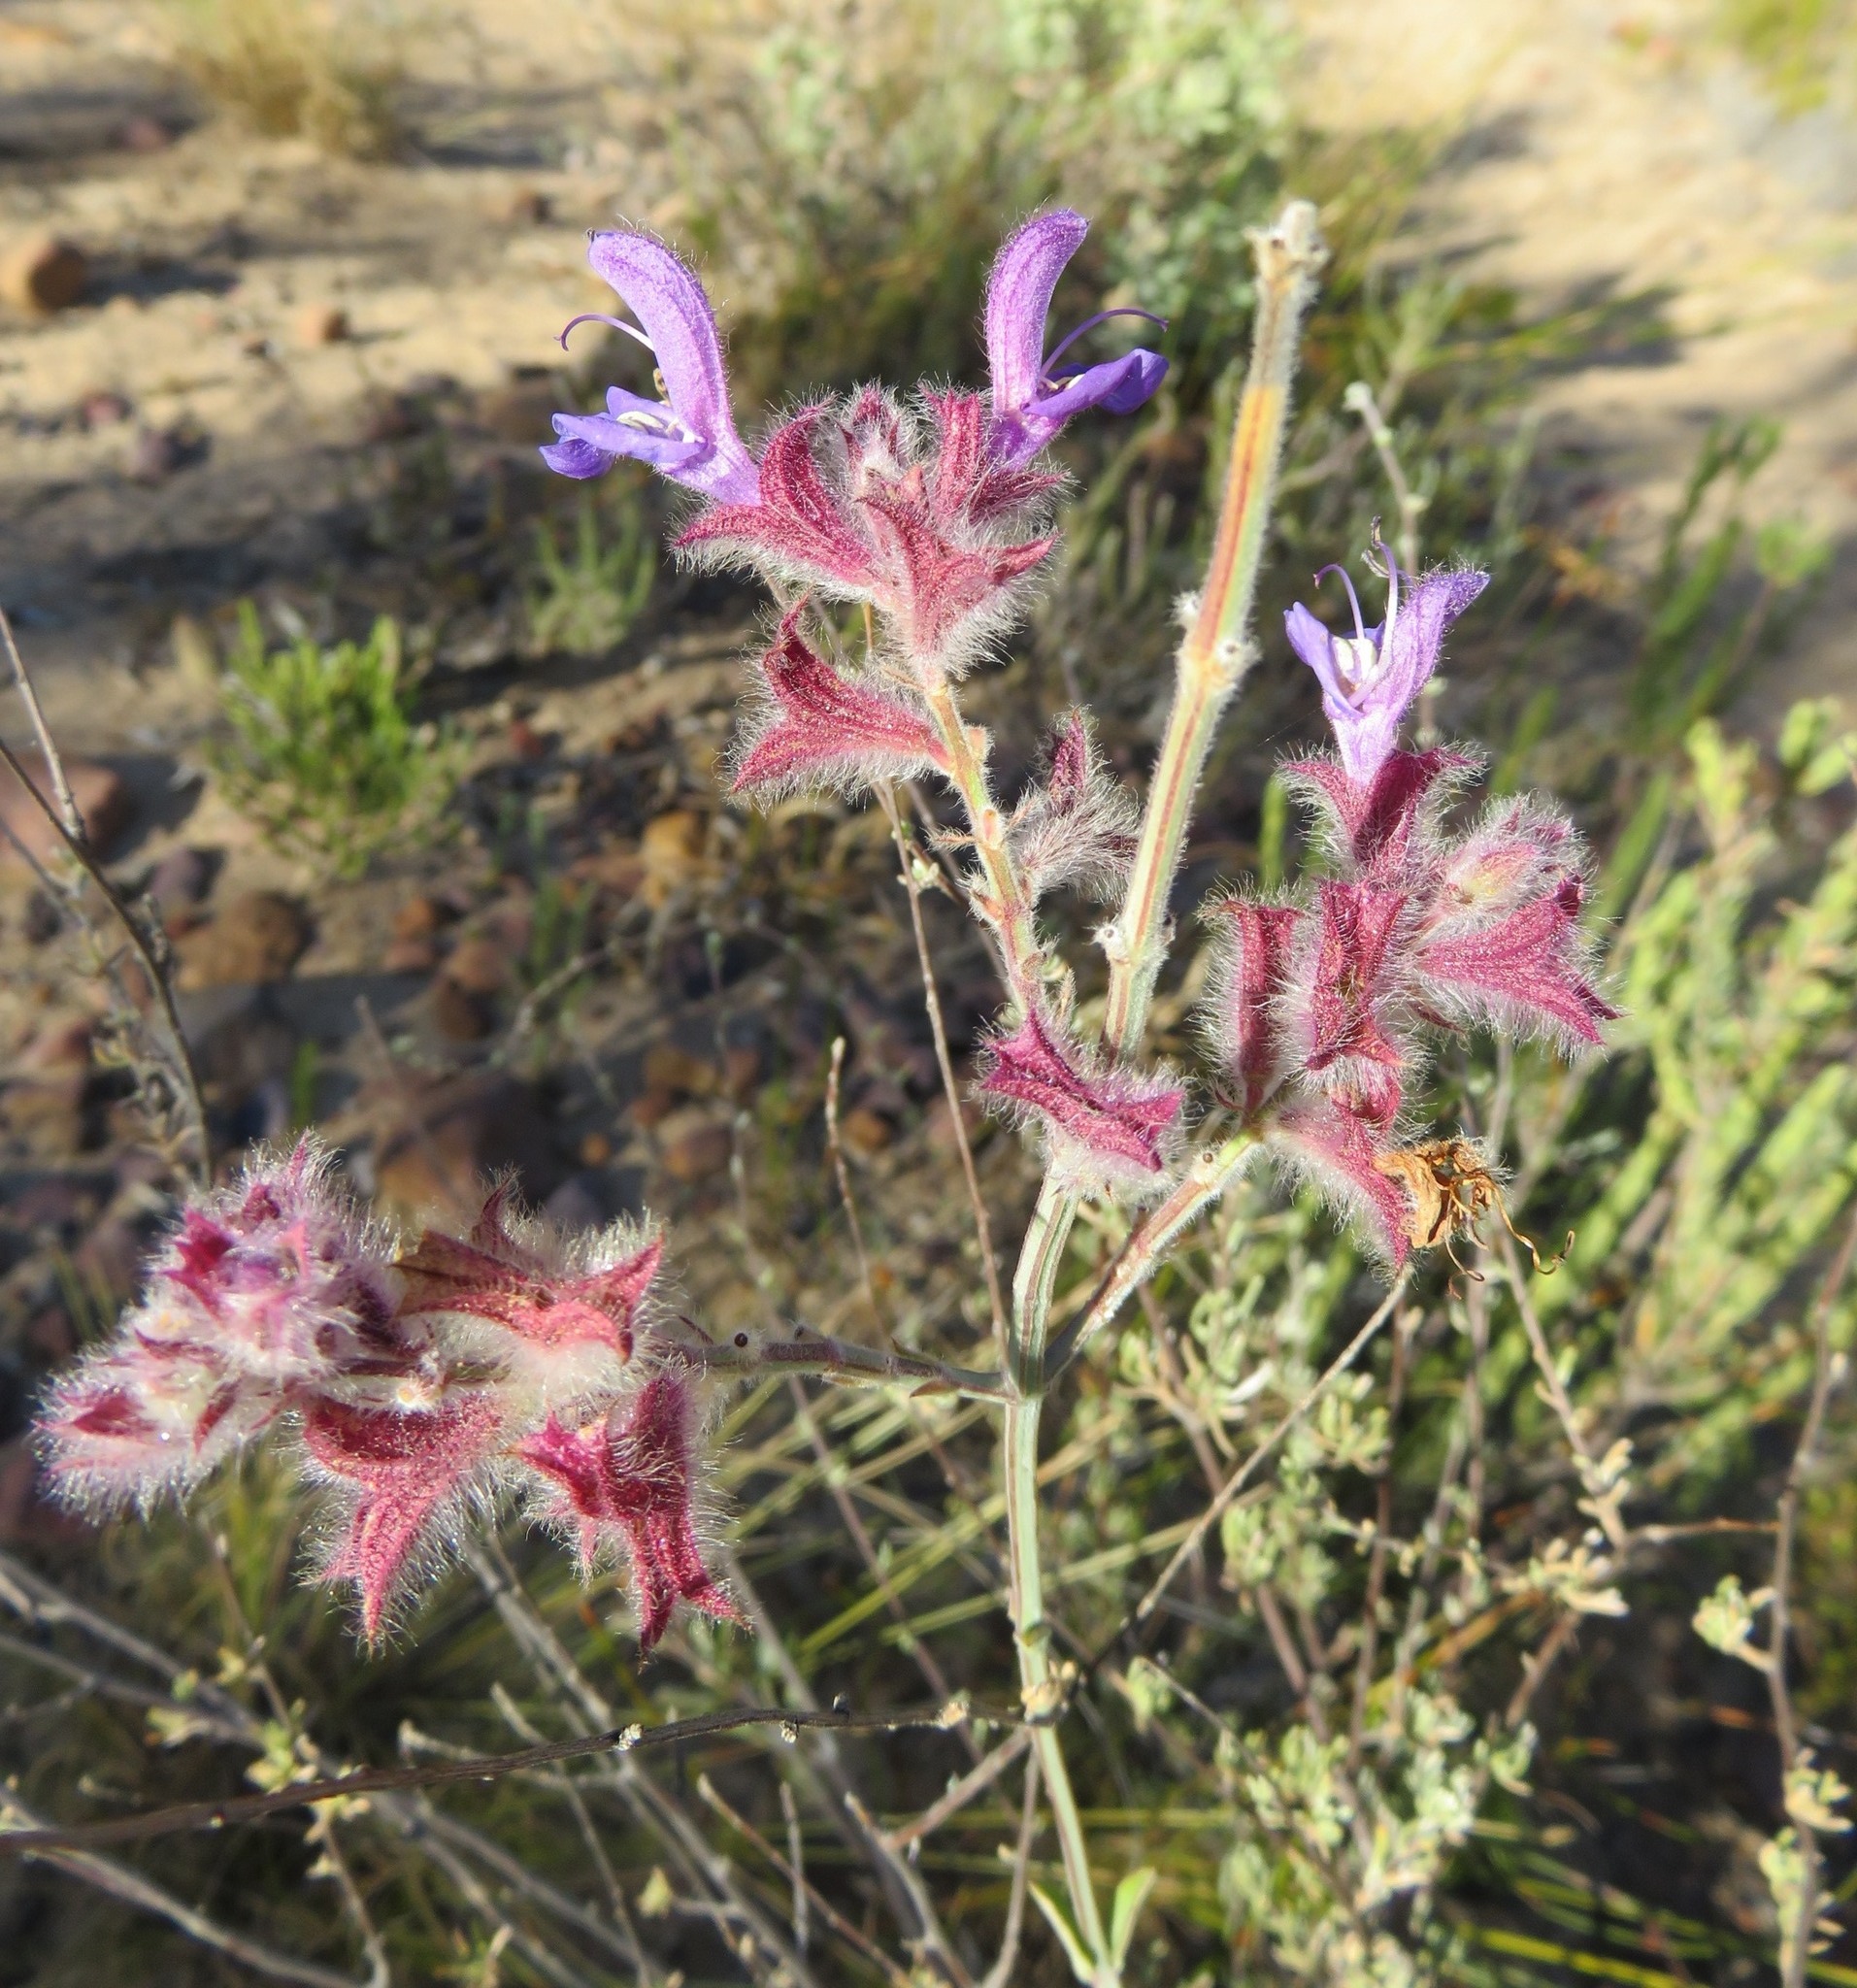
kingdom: Plantae
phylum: Tracheophyta
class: Magnoliopsida
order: Lamiales
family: Lamiaceae
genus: Salvia
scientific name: Salvia albicaulis
